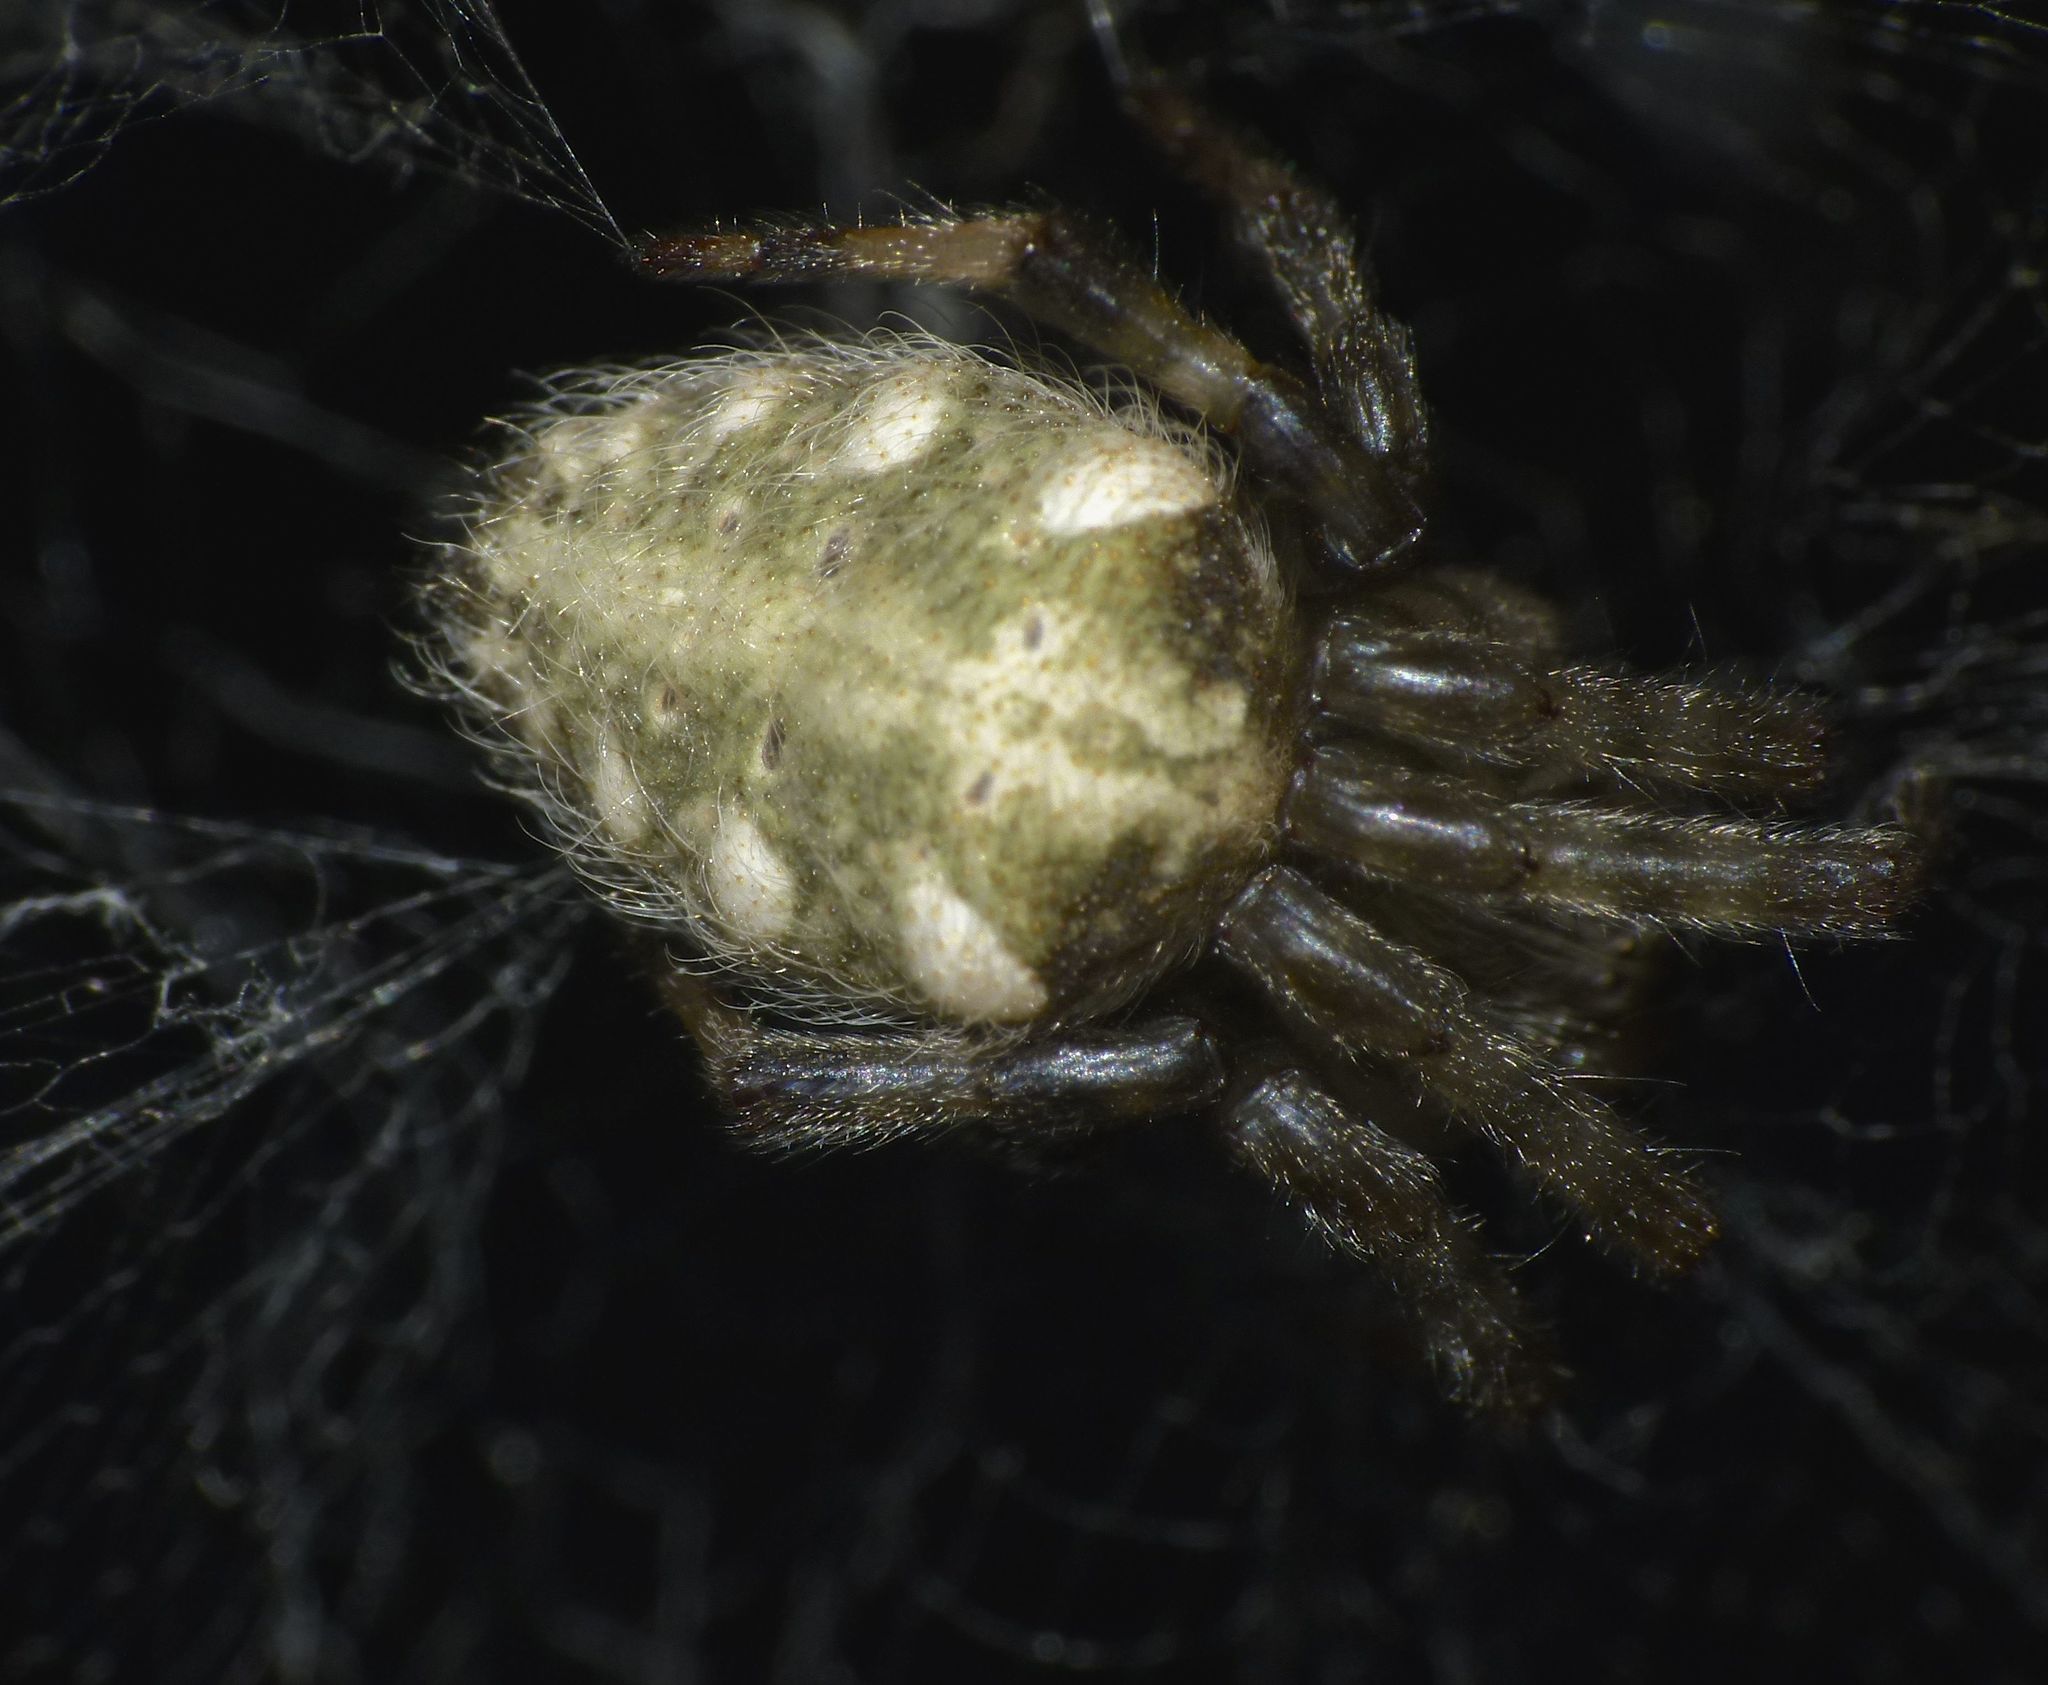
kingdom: Animalia
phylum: Arthropoda
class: Arachnida
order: Araneae
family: Araneidae
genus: Cyrtophora
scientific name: Cyrtophora hirta
